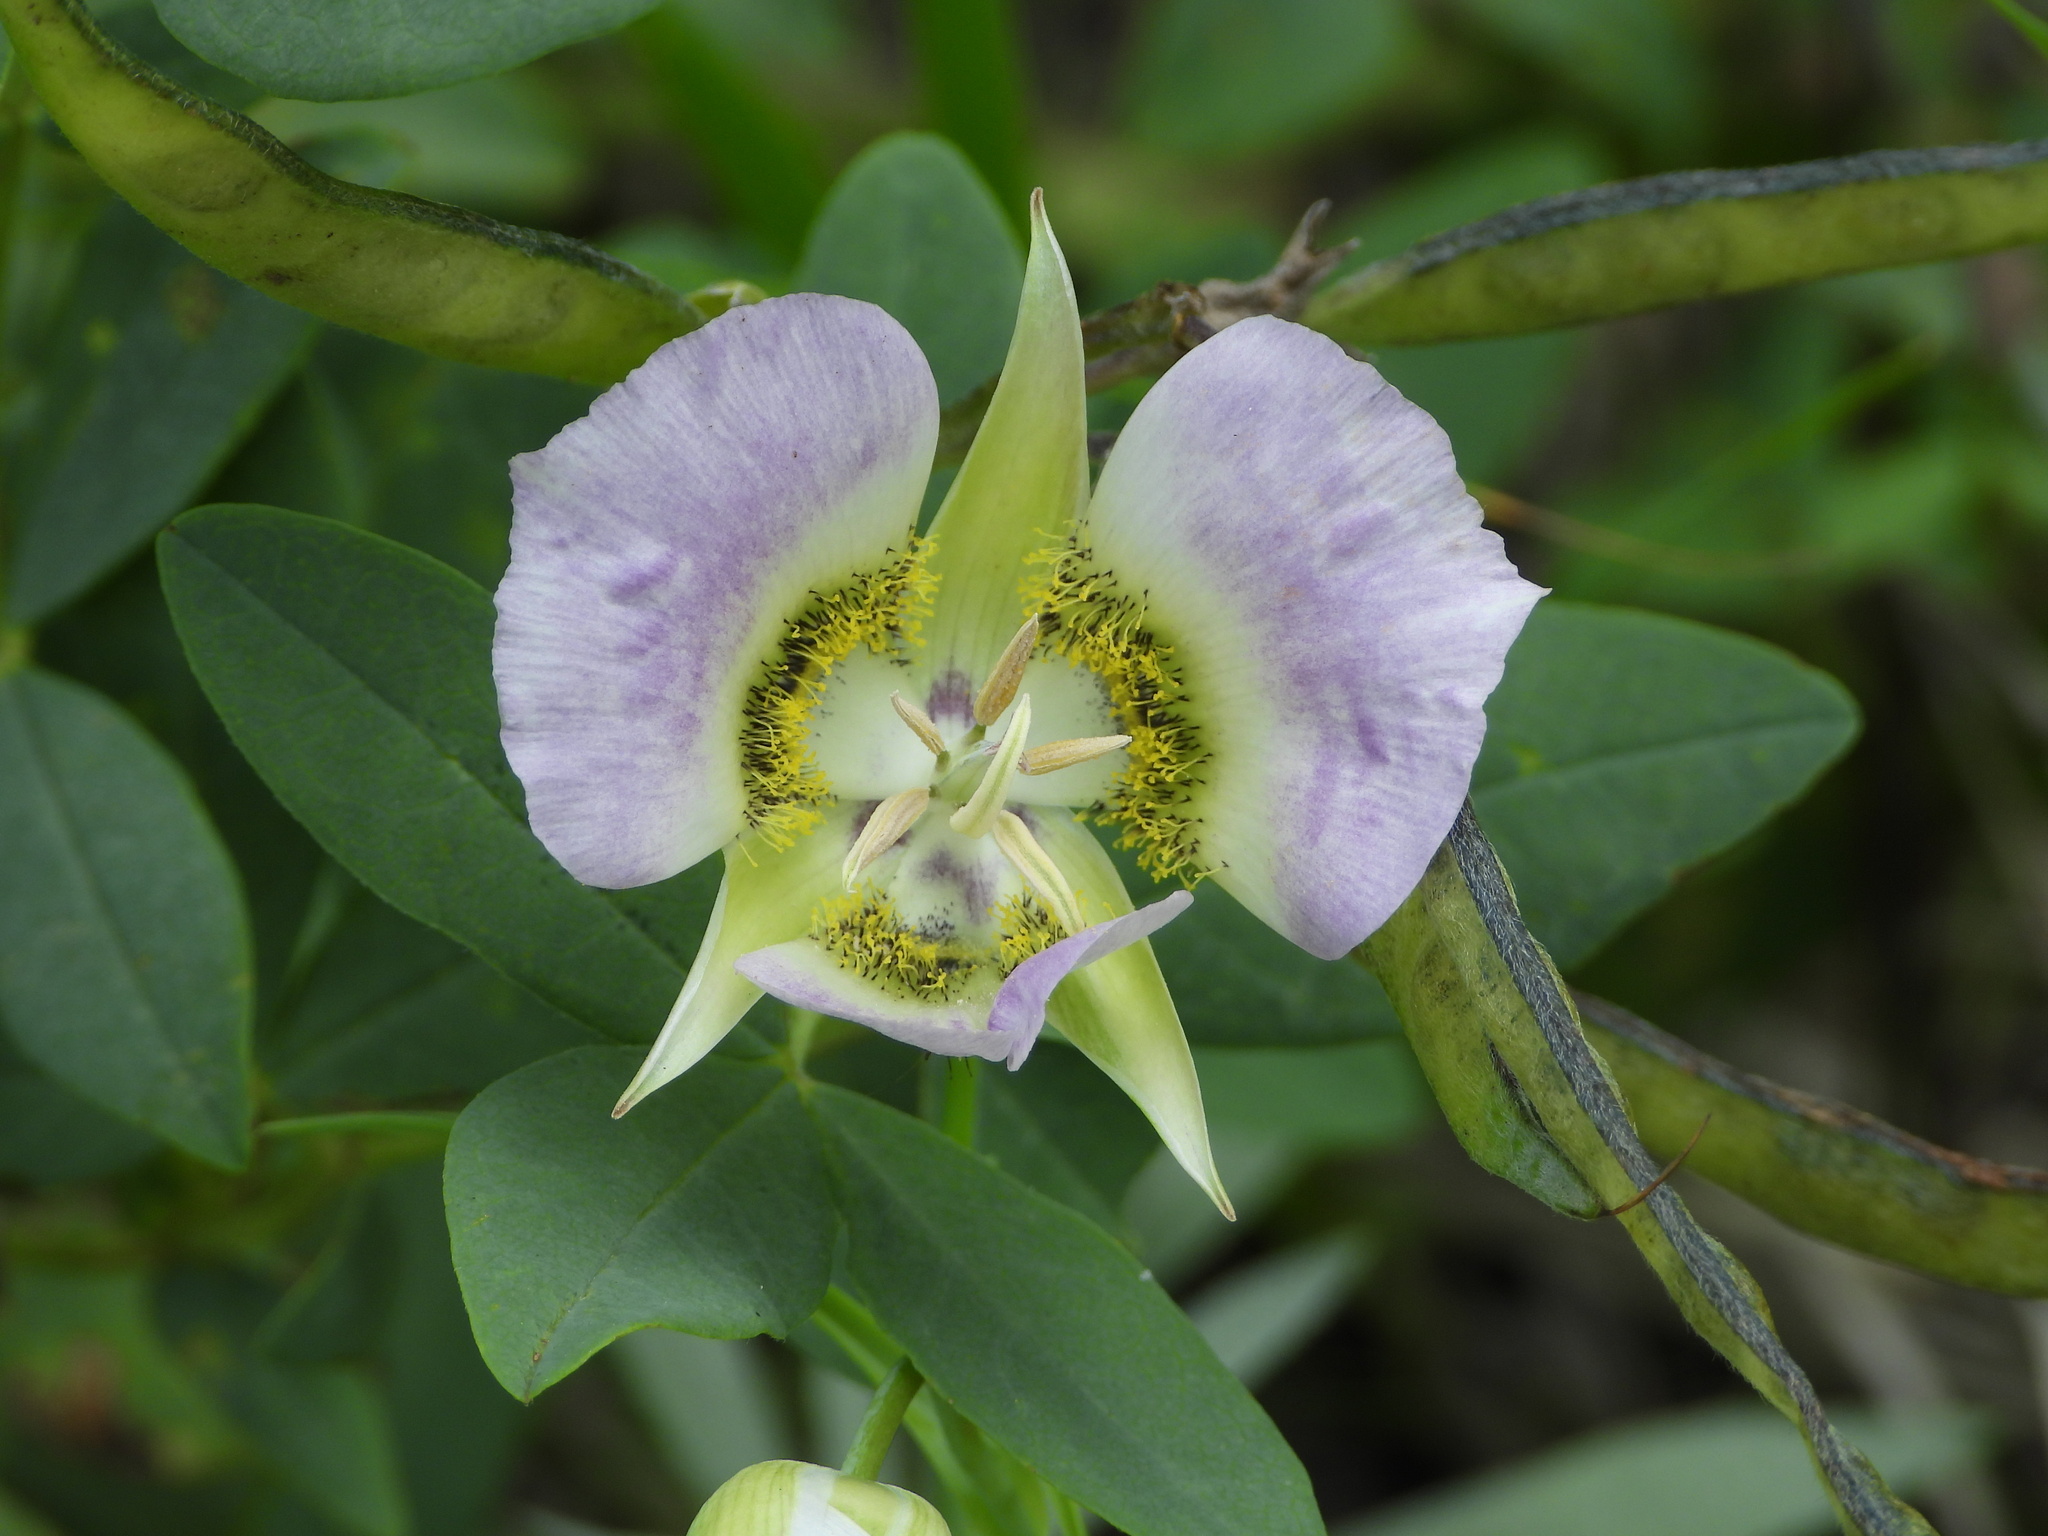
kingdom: Plantae
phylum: Tracheophyta
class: Liliopsida
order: Liliales
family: Liliaceae
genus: Calochortus
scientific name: Calochortus gunnisonii
